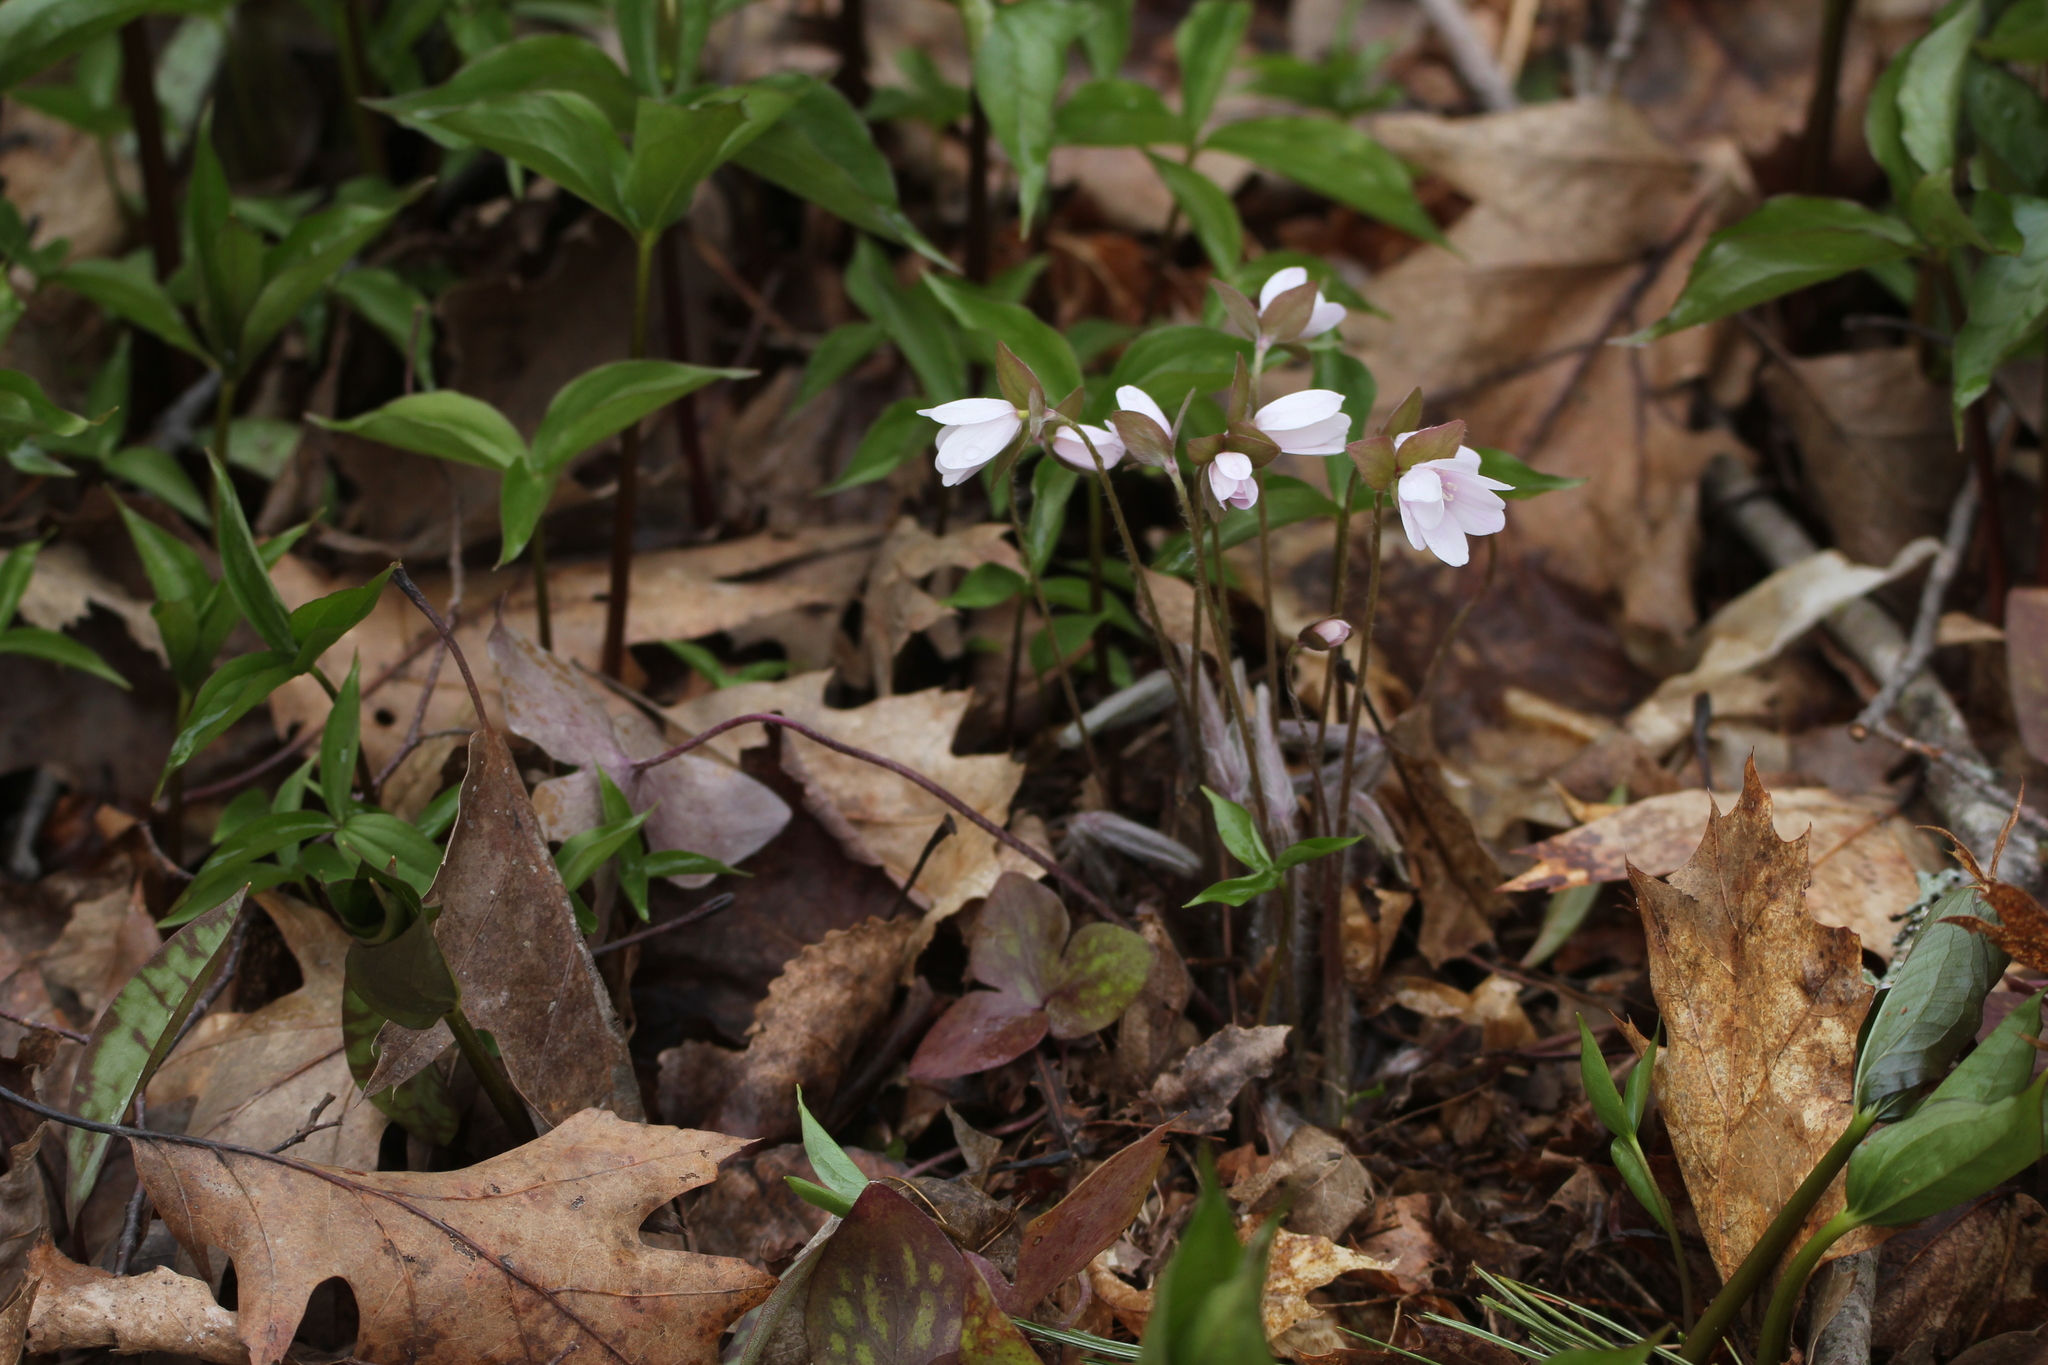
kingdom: Plantae
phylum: Tracheophyta
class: Magnoliopsida
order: Ranunculales
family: Ranunculaceae
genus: Hepatica
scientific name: Hepatica acutiloba
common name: Sharp-lobed hepatica
